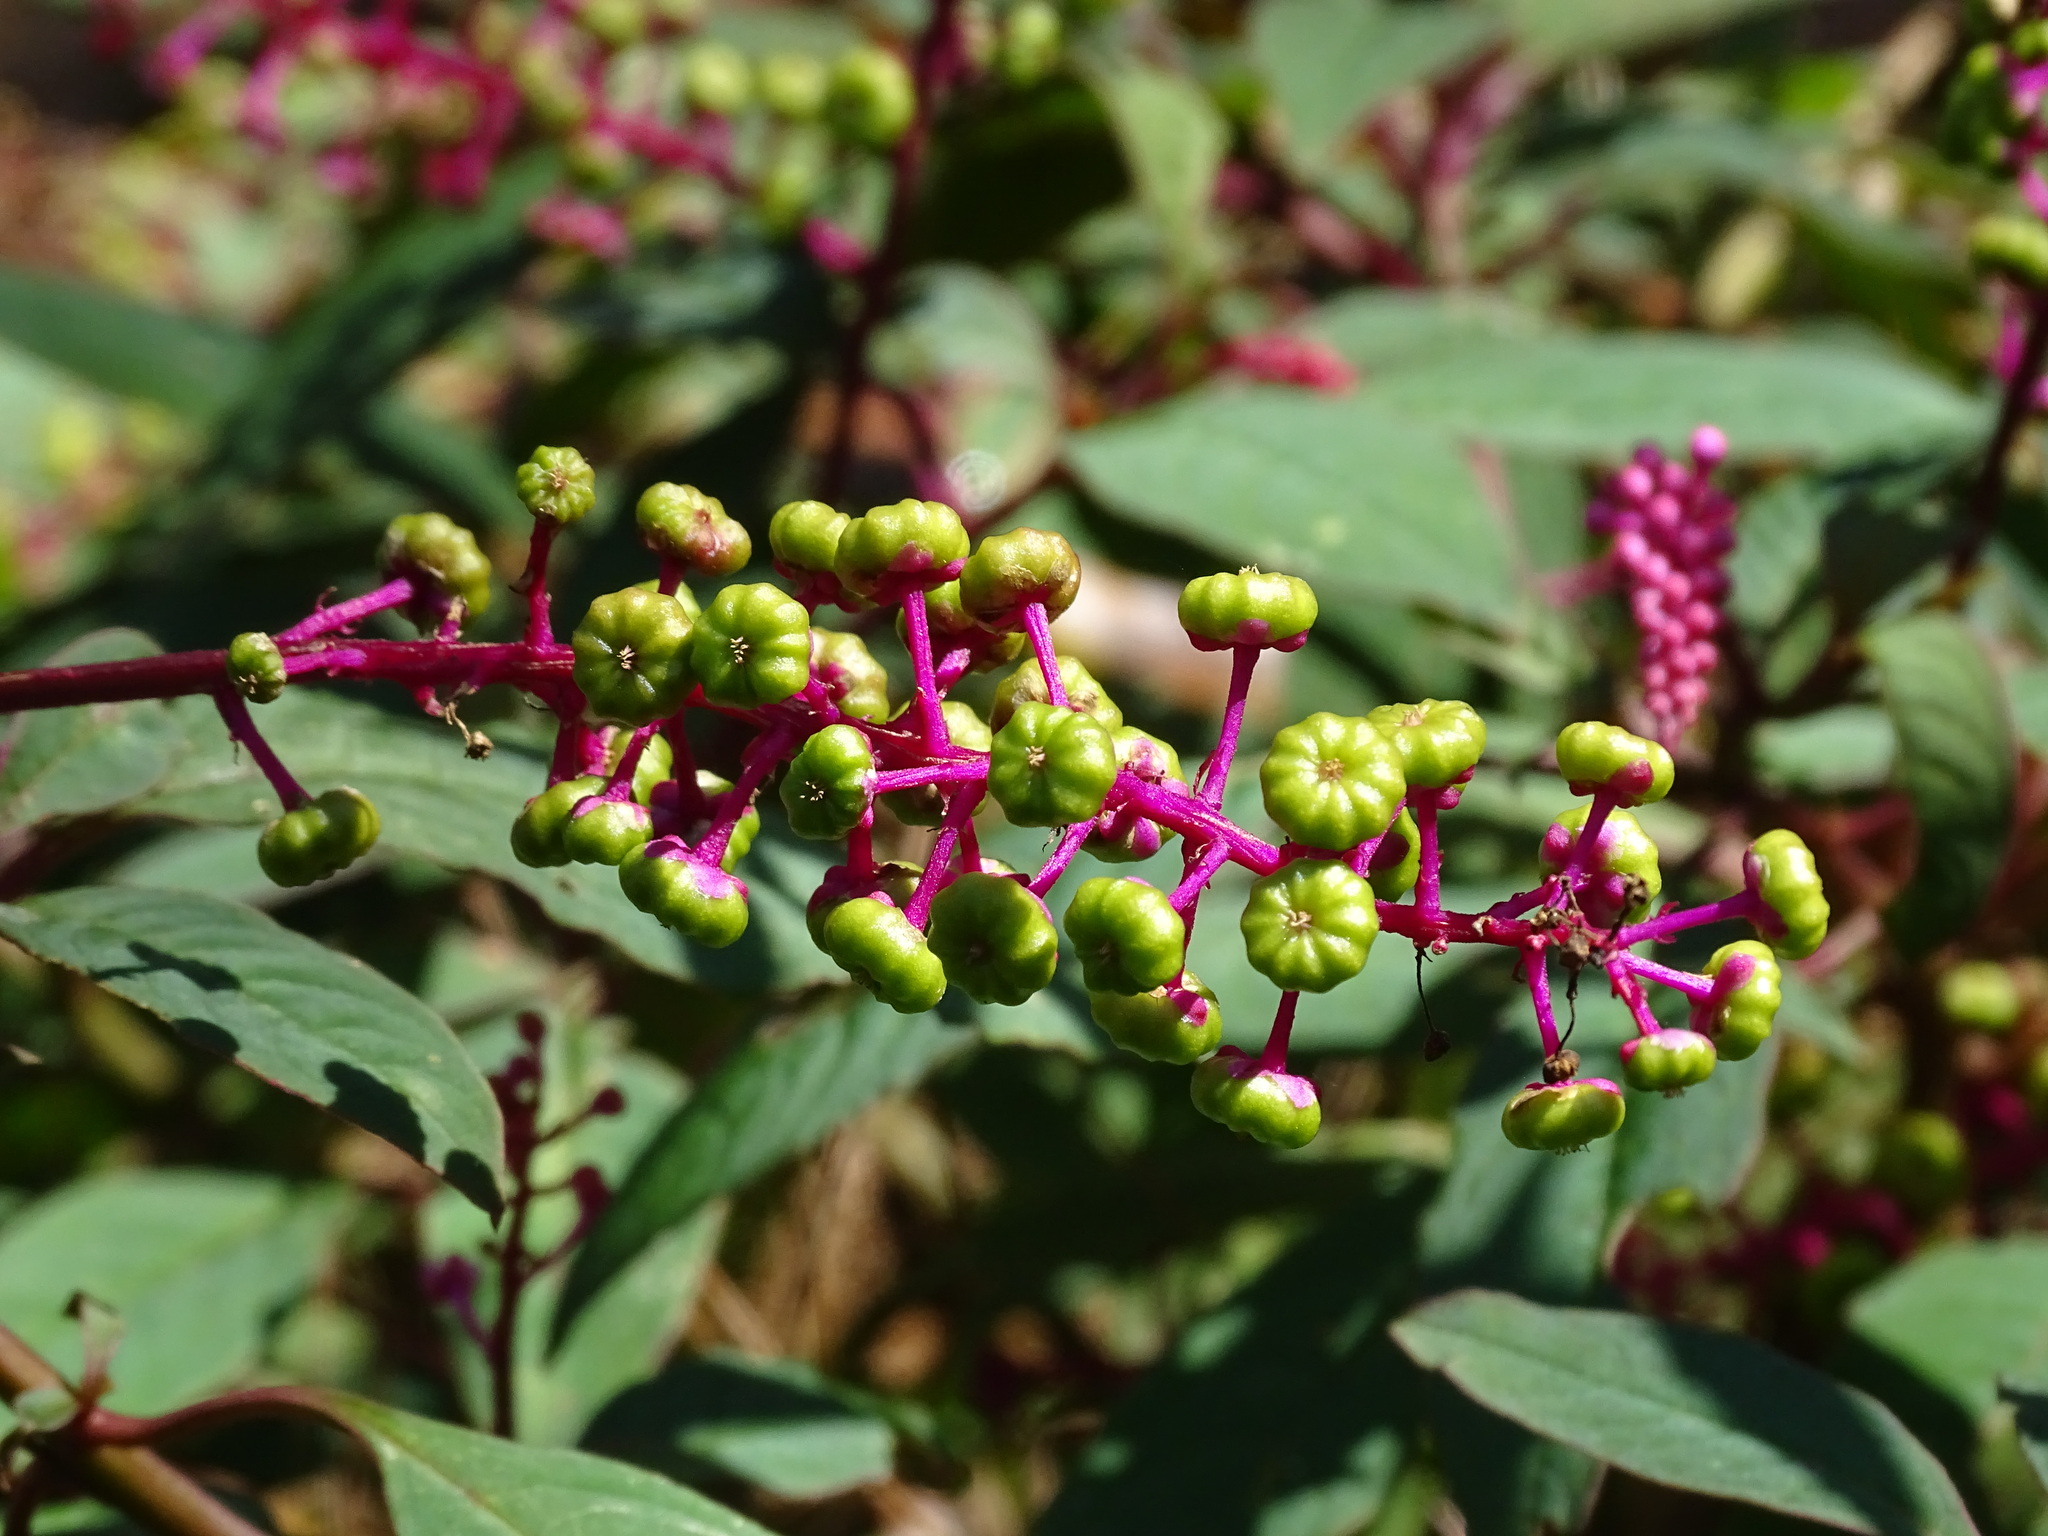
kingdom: Plantae
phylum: Tracheophyta
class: Magnoliopsida
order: Caryophyllales
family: Phytolaccaceae
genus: Phytolacca
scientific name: Phytolacca americana
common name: American pokeweed
